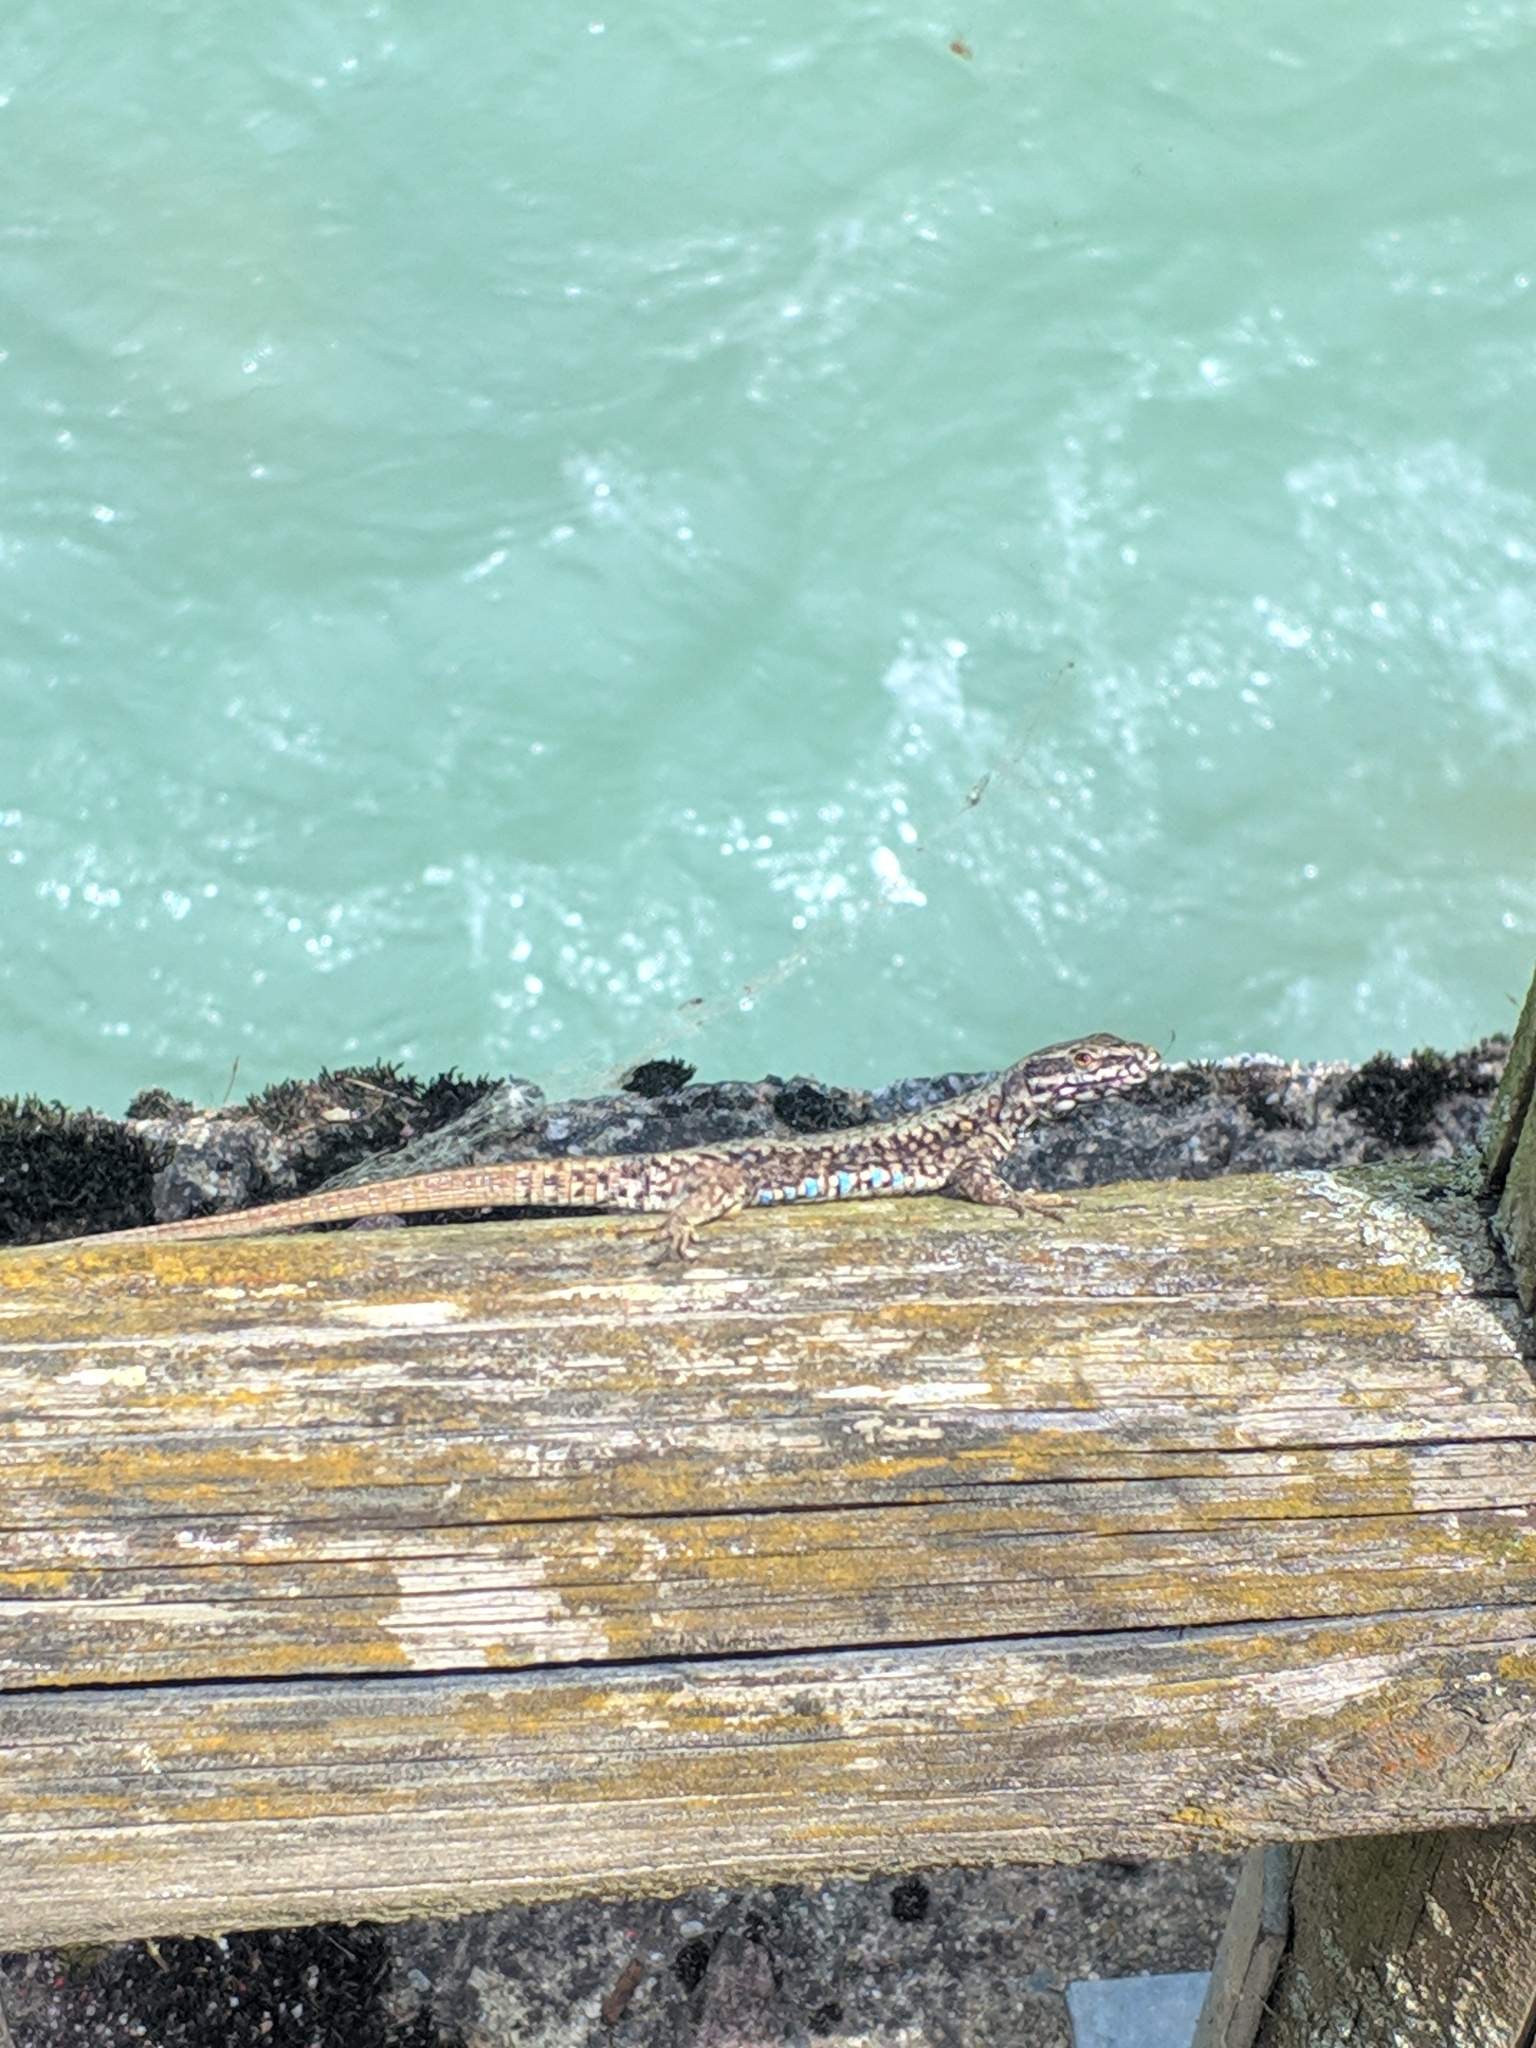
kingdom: Animalia
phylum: Chordata
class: Squamata
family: Lacertidae
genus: Podarcis
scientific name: Podarcis muralis
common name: Common wall lizard
